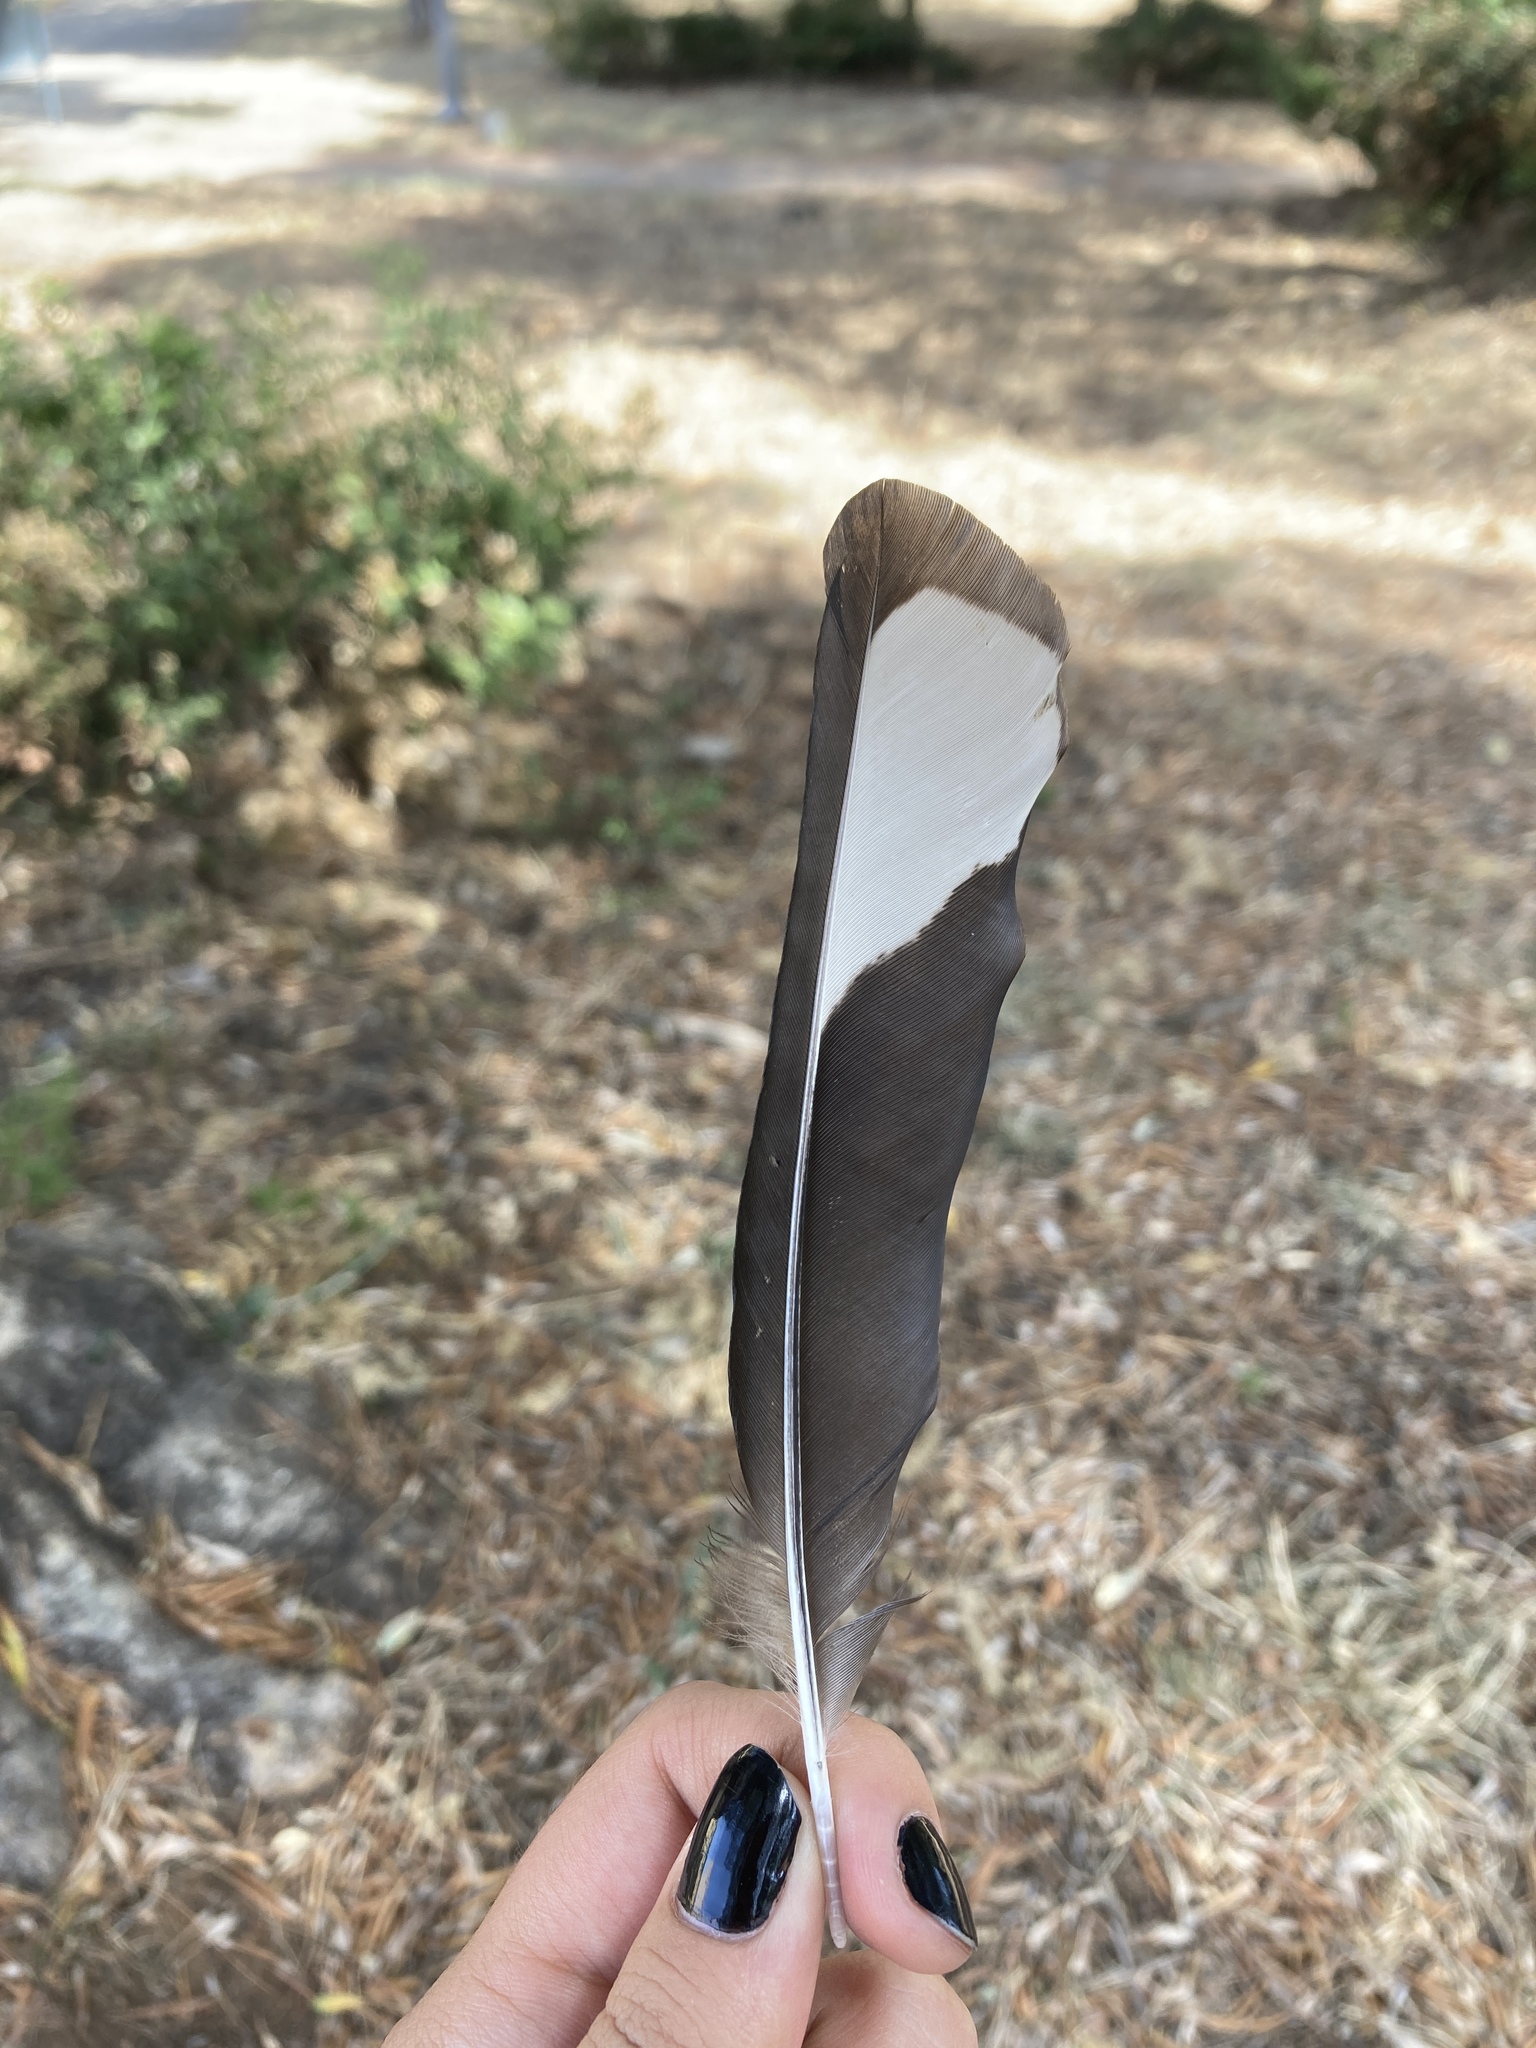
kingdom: Animalia
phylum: Chordata
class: Aves
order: Passeriformes
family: Corvidae
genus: Pica
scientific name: Pica pica
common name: Eurasian magpie
